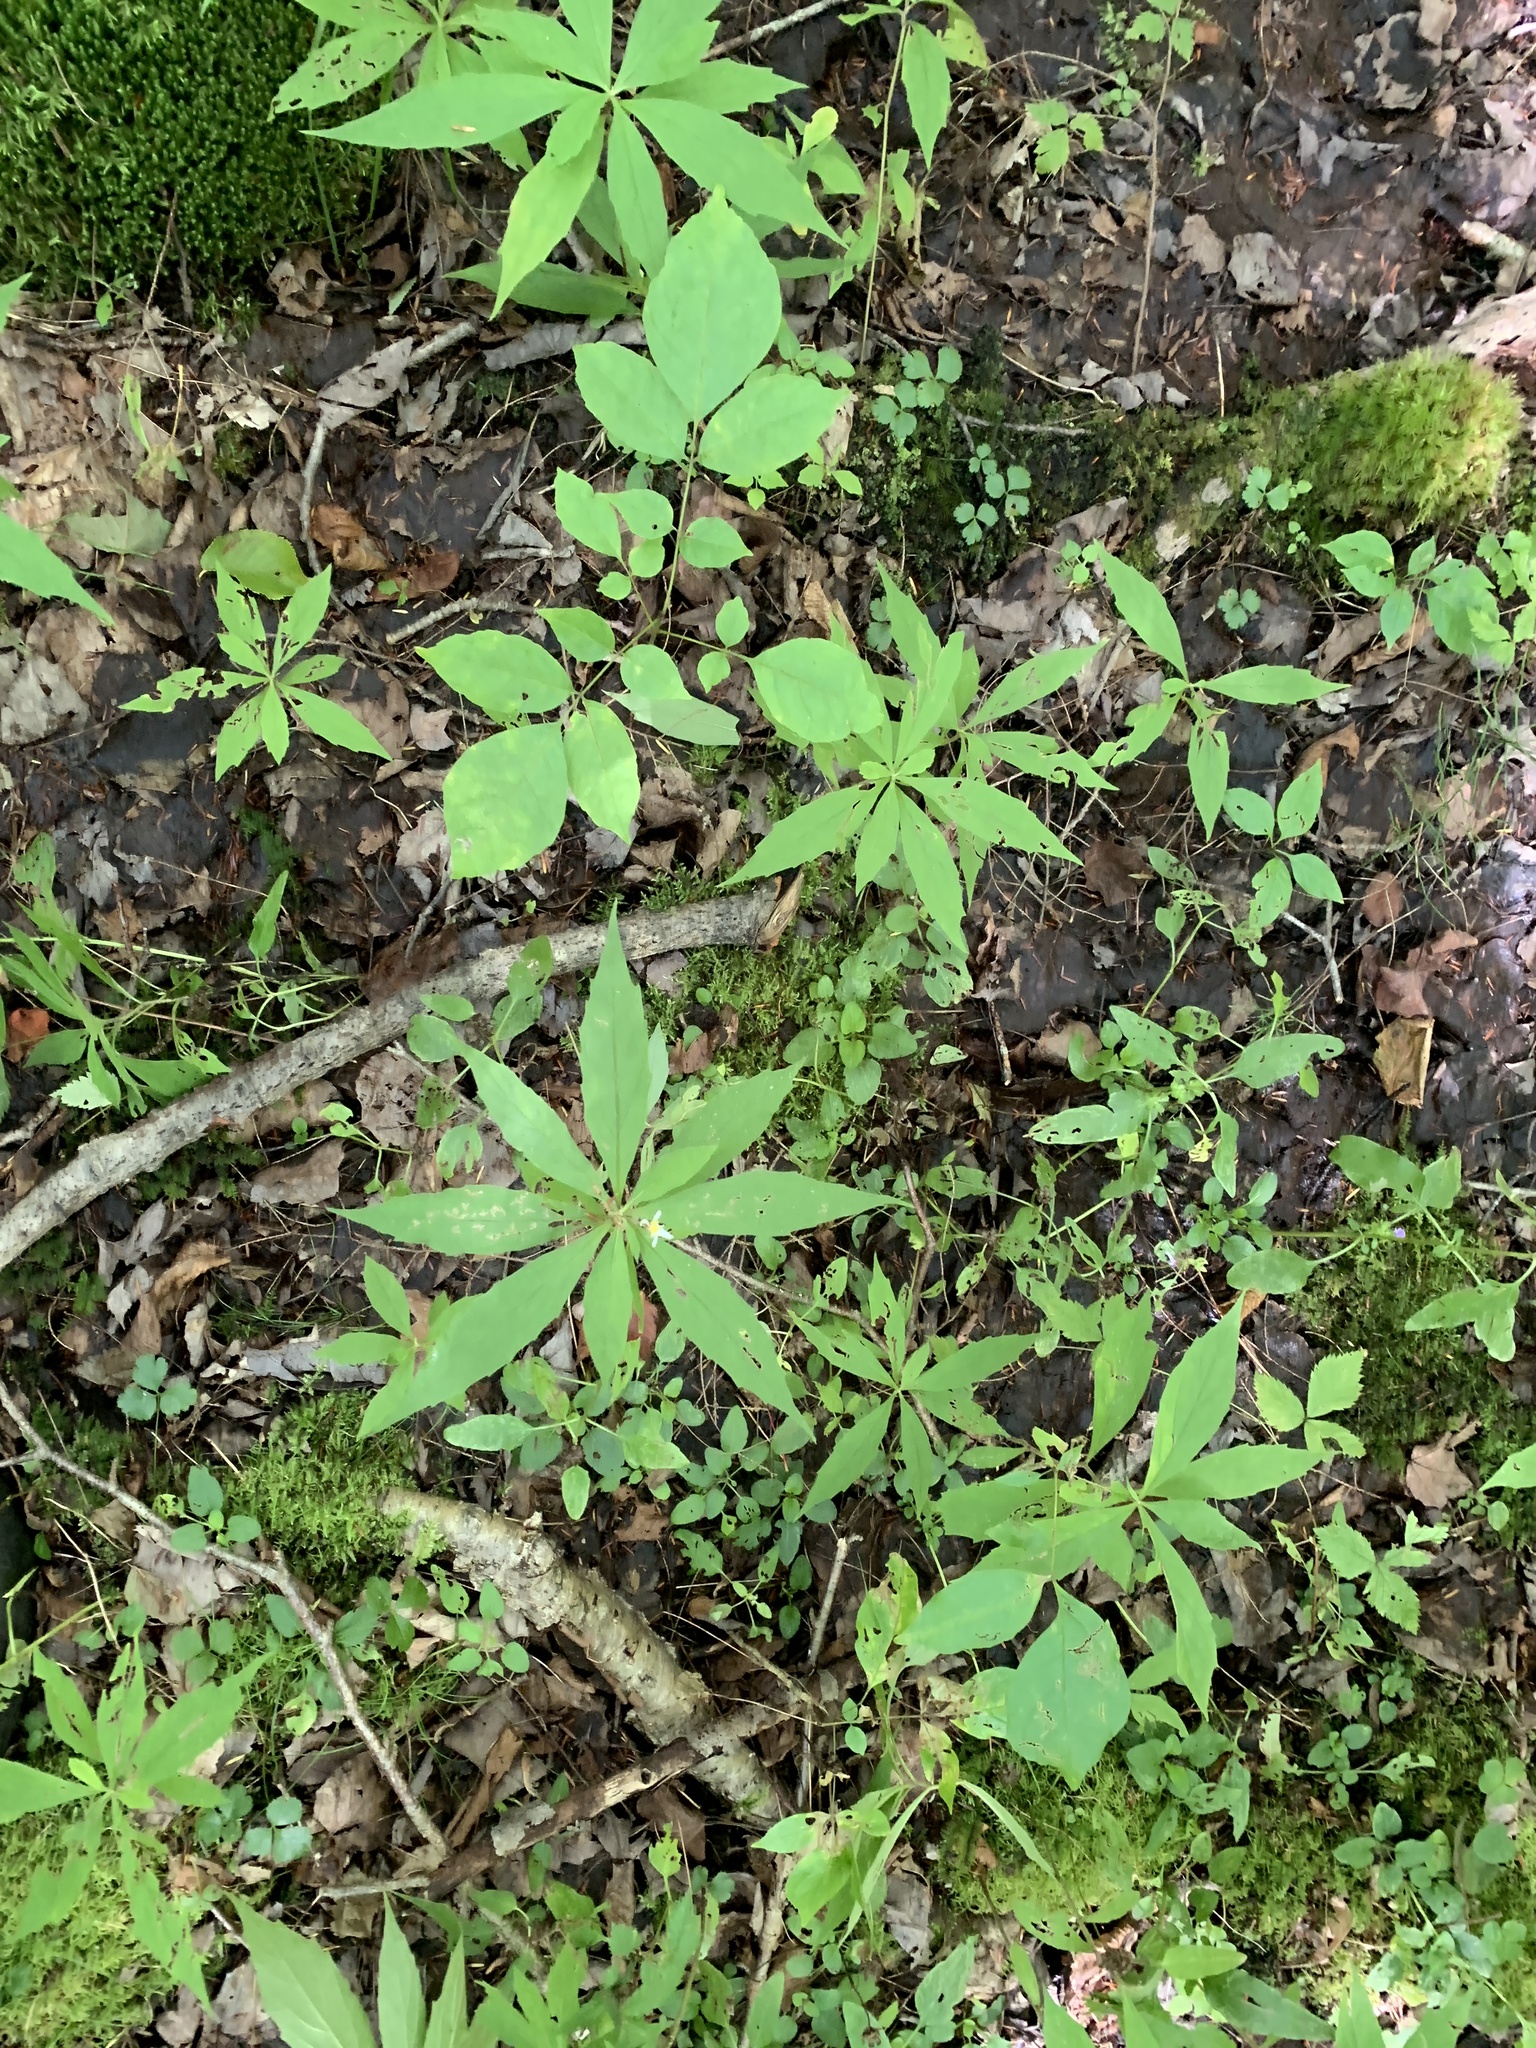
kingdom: Plantae
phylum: Tracheophyta
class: Magnoliopsida
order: Asterales
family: Asteraceae
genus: Oclemena
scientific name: Oclemena acuminata
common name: Mountain aster
